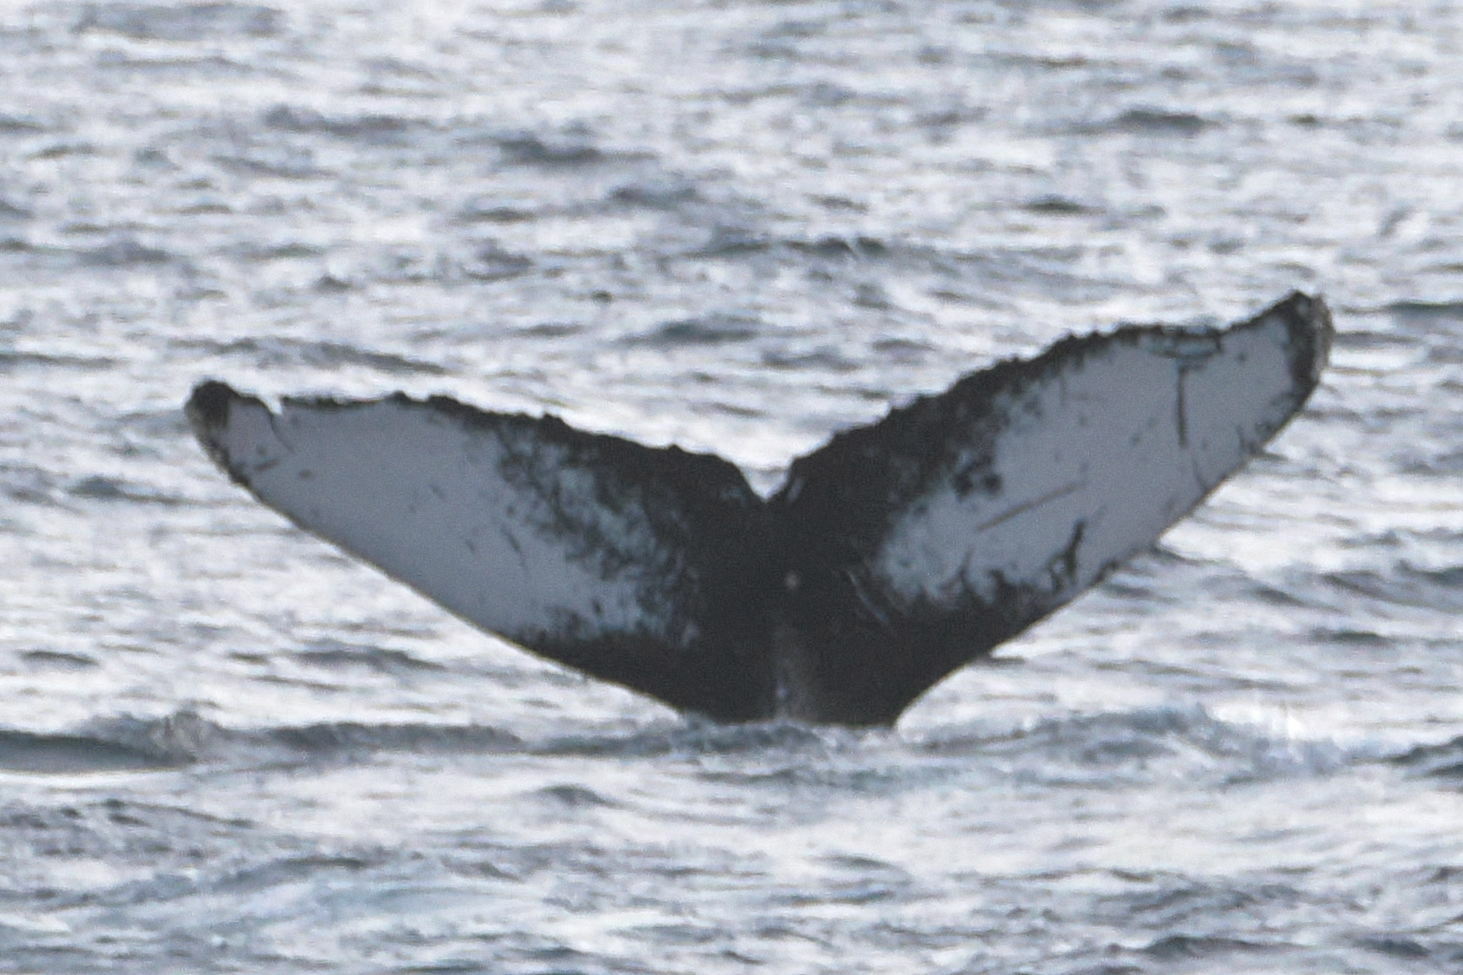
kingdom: Animalia
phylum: Chordata
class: Mammalia
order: Cetacea
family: Balaenopteridae
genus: Megaptera
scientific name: Megaptera novaeangliae
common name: Humpback whale
